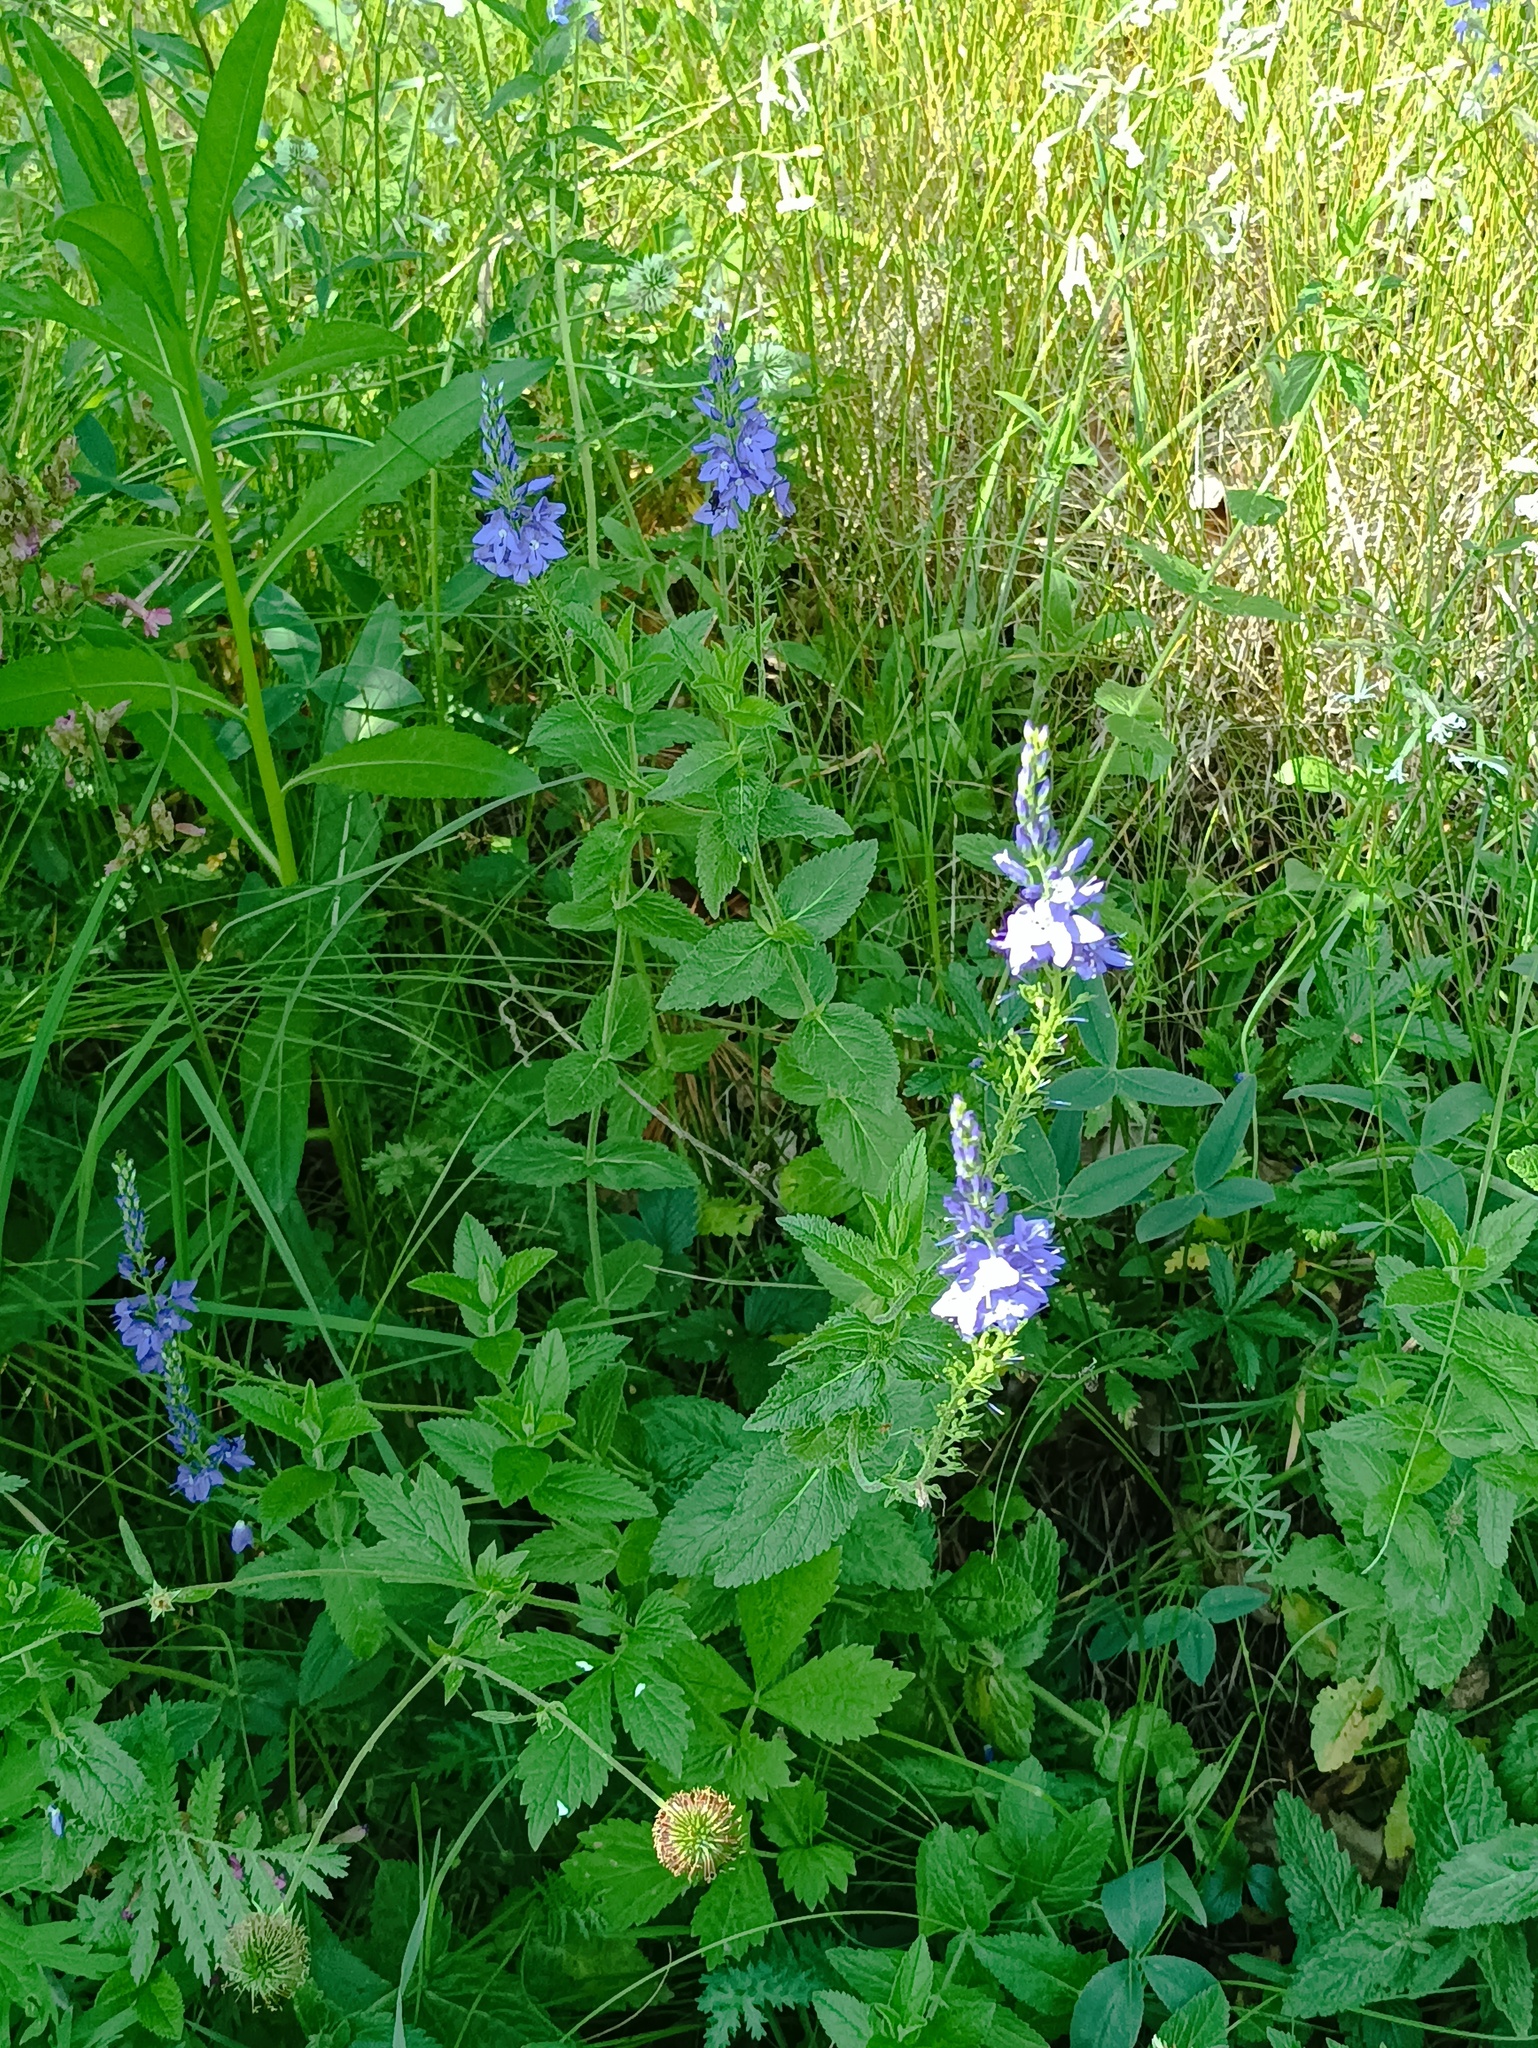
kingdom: Plantae
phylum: Tracheophyta
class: Magnoliopsida
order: Lamiales
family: Plantaginaceae
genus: Veronica
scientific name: Veronica teucrium
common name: Large speedwell
